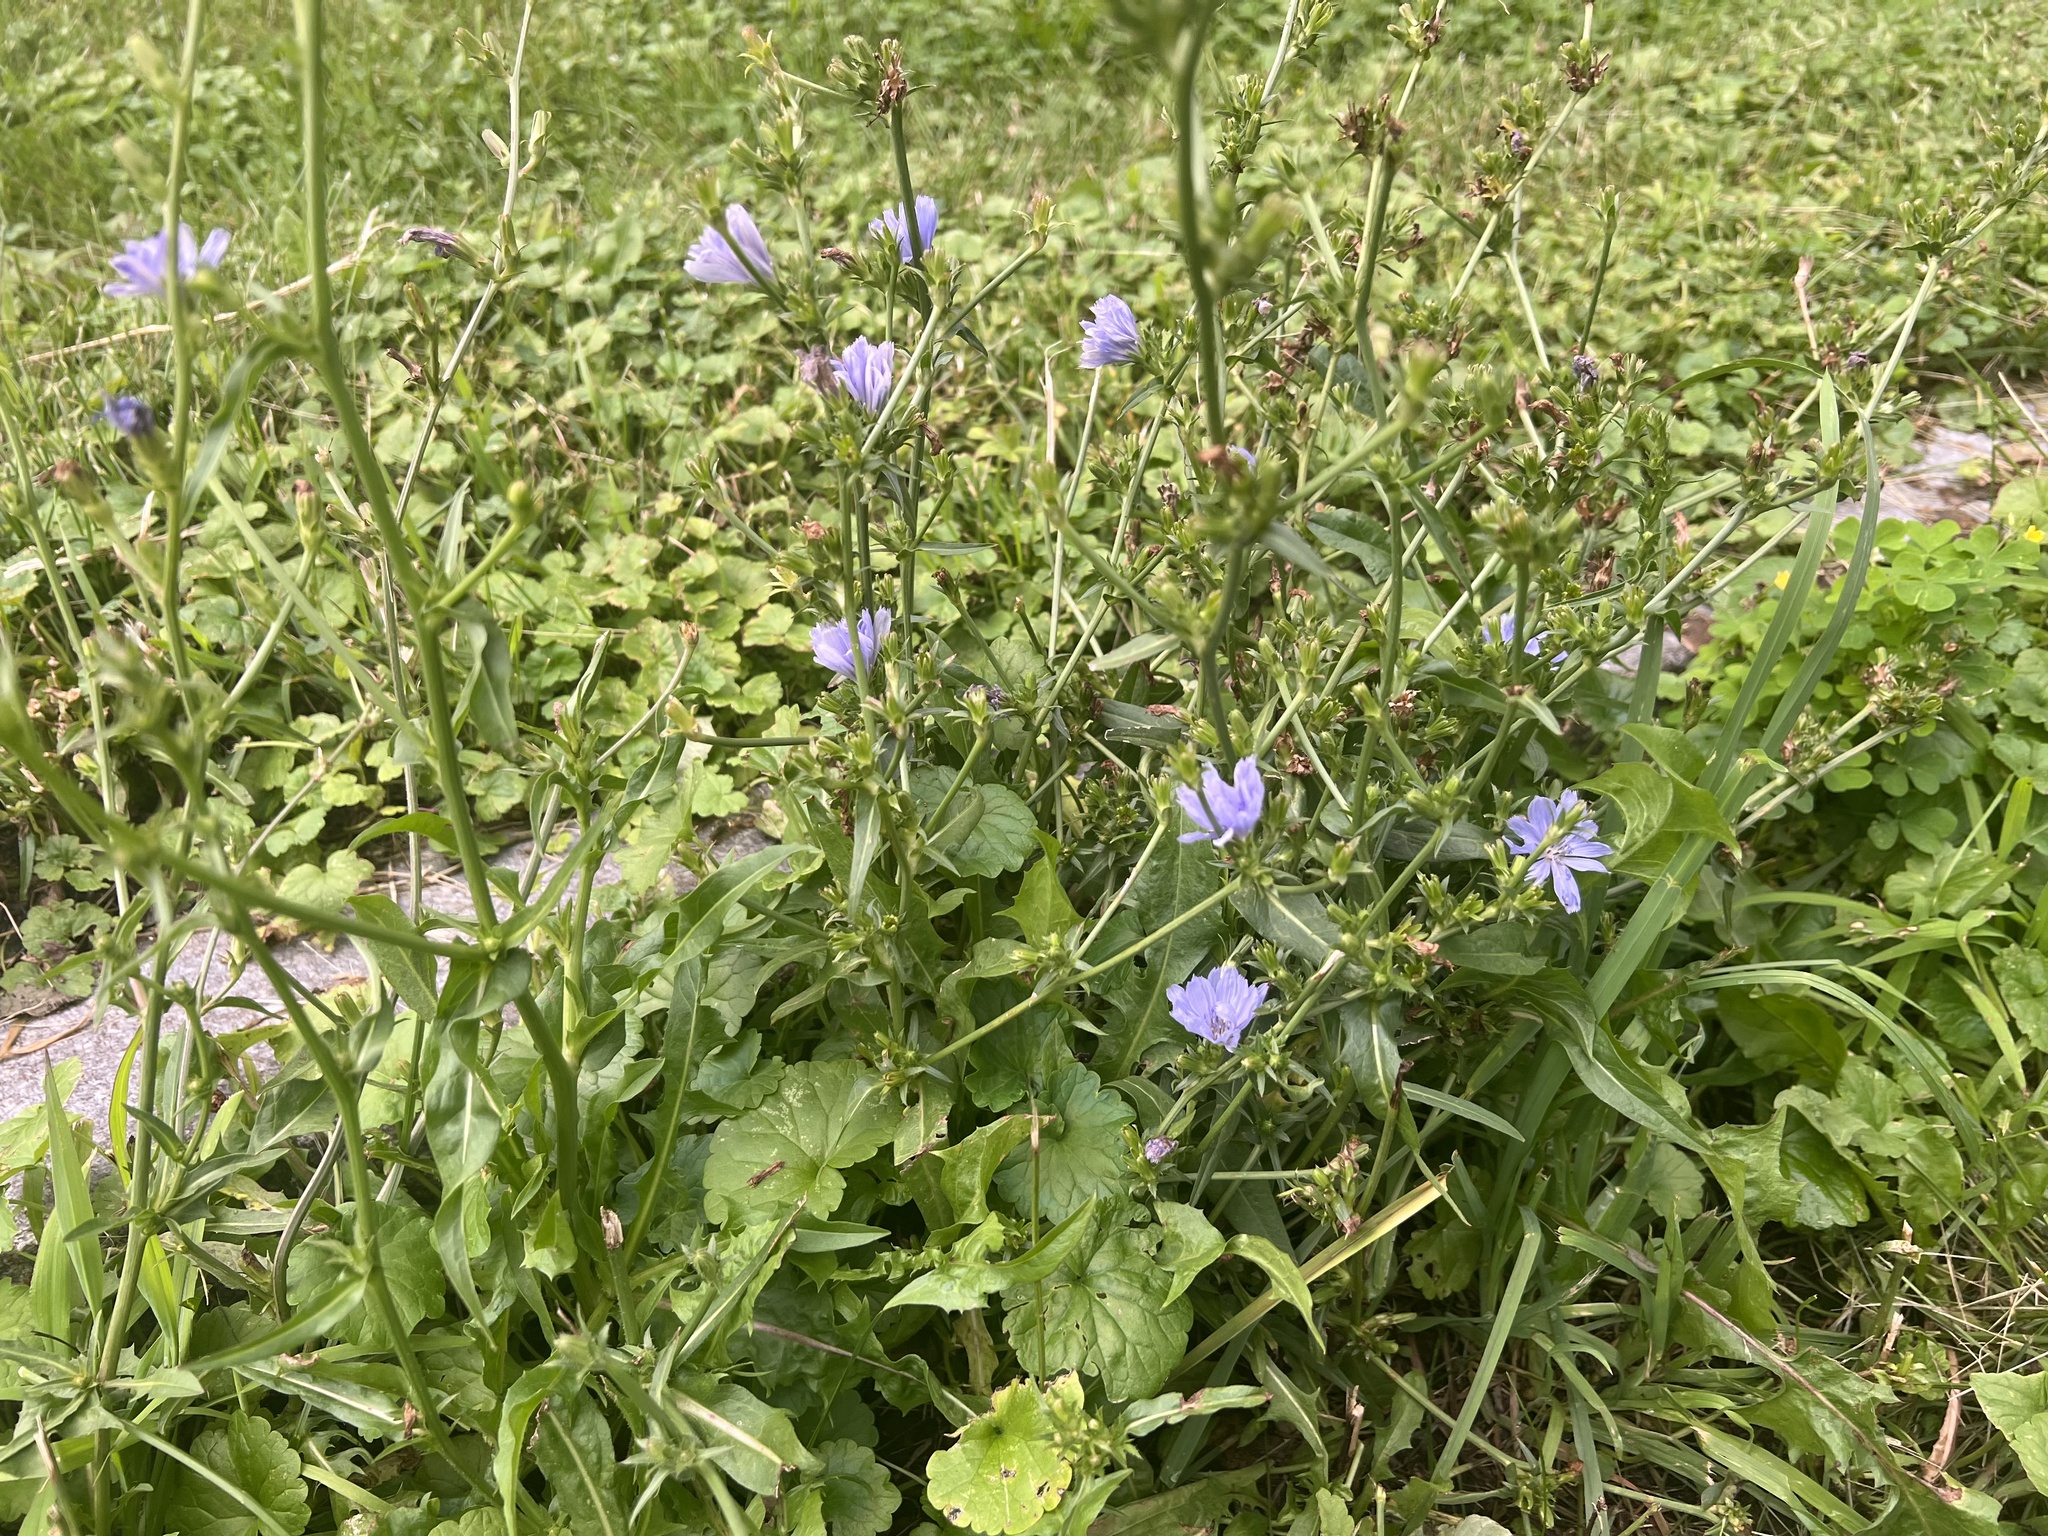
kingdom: Plantae
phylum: Tracheophyta
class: Magnoliopsida
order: Asterales
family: Asteraceae
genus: Cichorium
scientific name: Cichorium intybus
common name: Chicory
